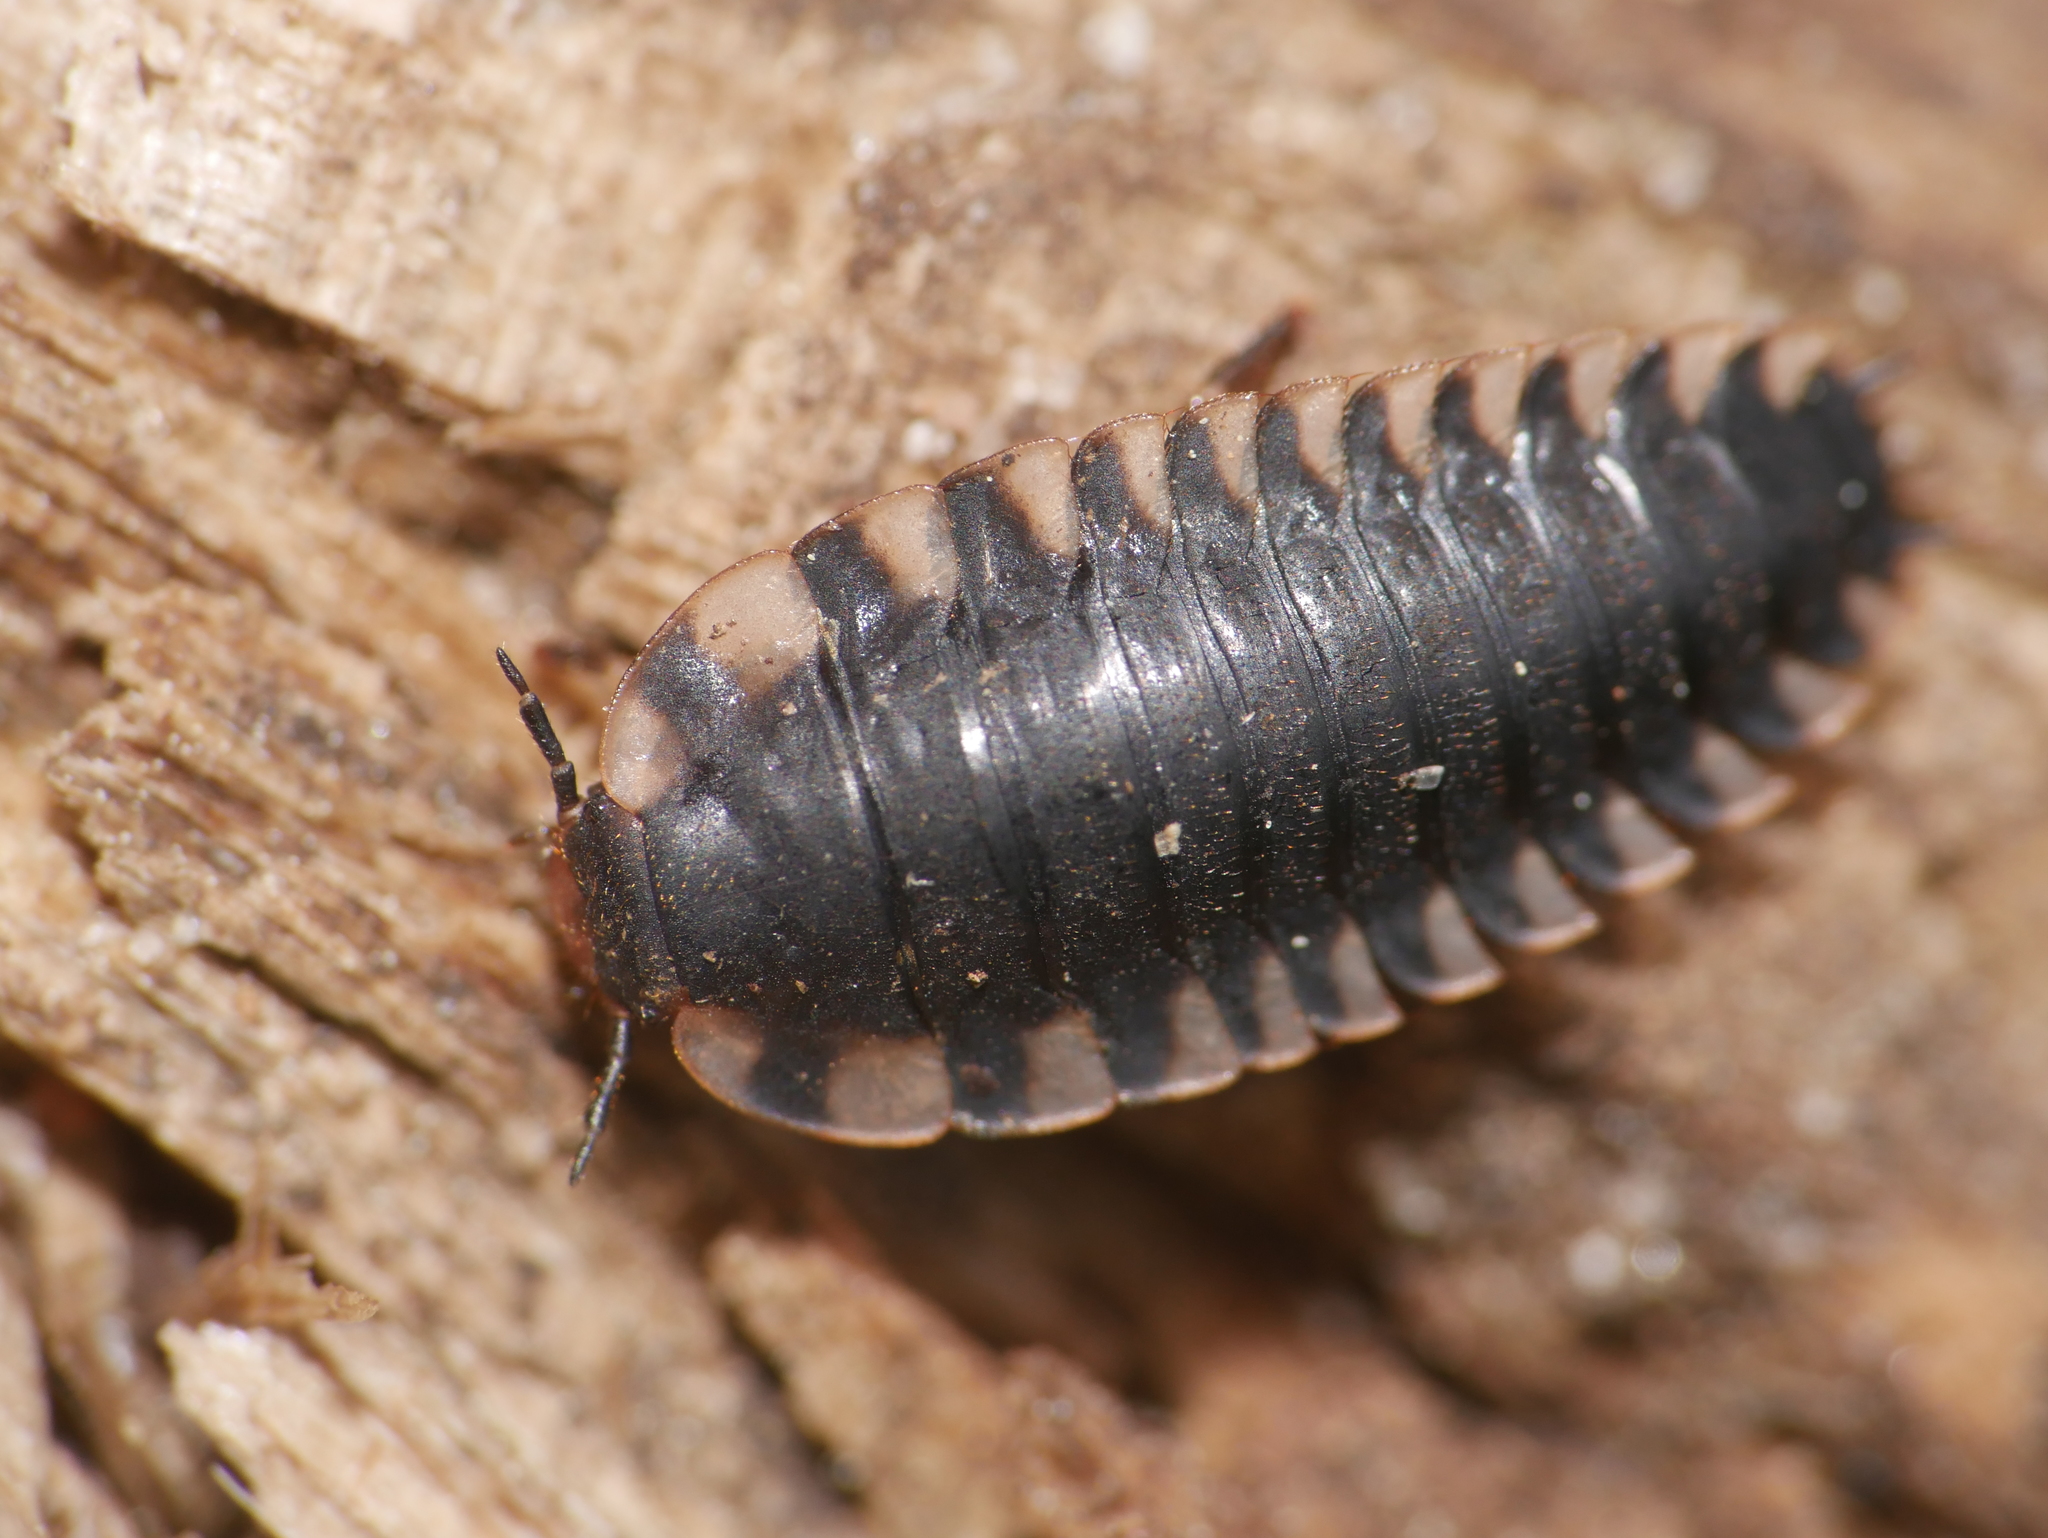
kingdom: Animalia
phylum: Arthropoda
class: Insecta
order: Coleoptera
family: Staphylinidae
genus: Oiceoptoma
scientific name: Oiceoptoma thoracicum
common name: Red-breasted carrion beetle
